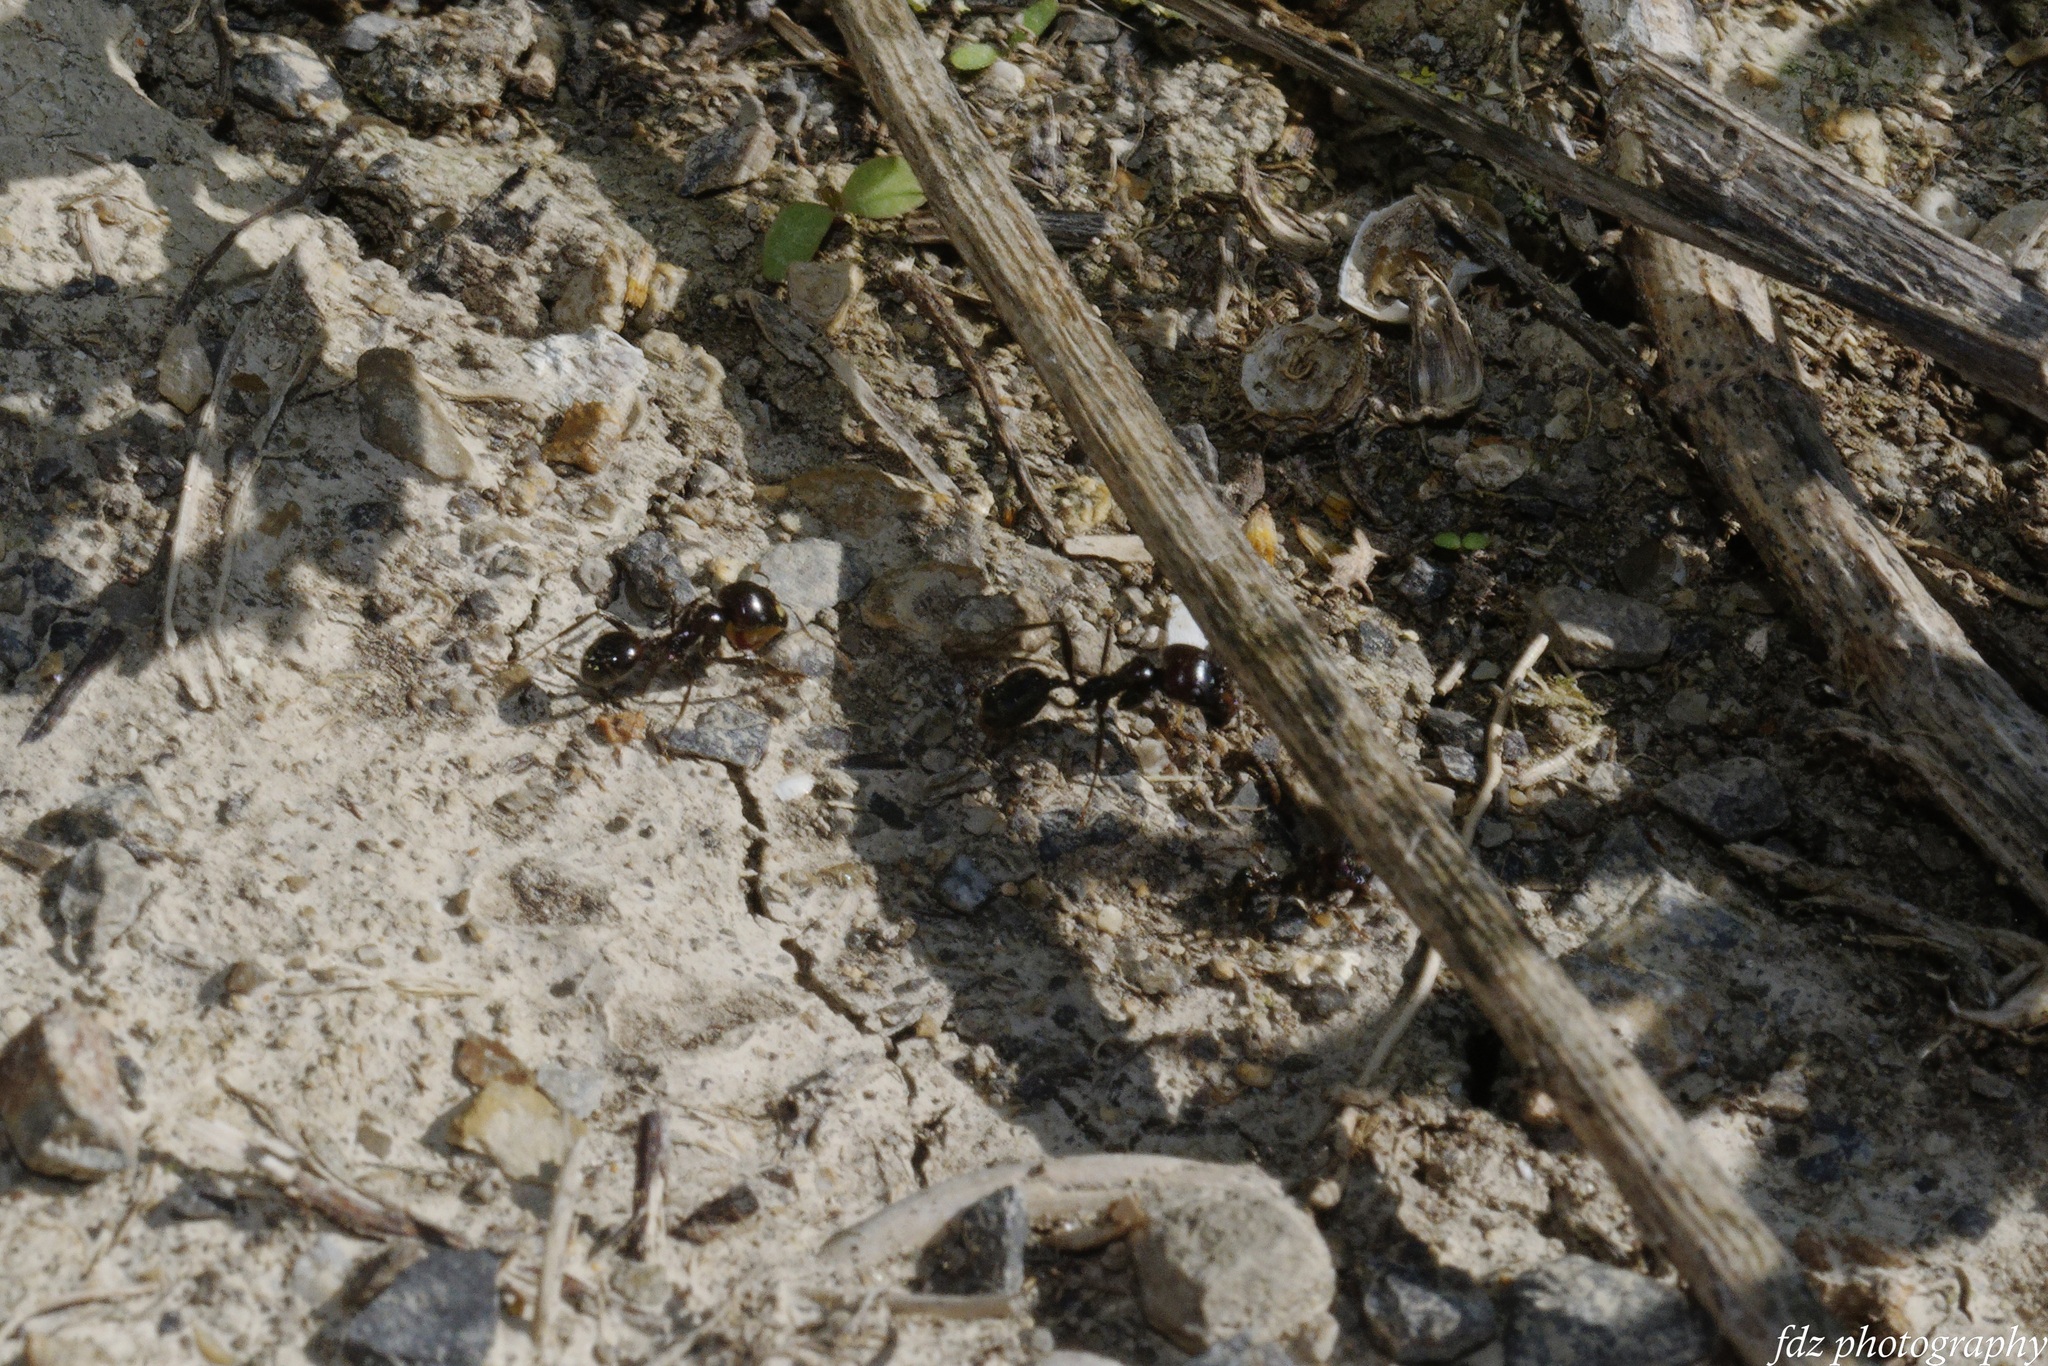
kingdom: Animalia
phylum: Arthropoda
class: Insecta
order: Hymenoptera
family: Formicidae
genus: Messor
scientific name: Messor barbarus
